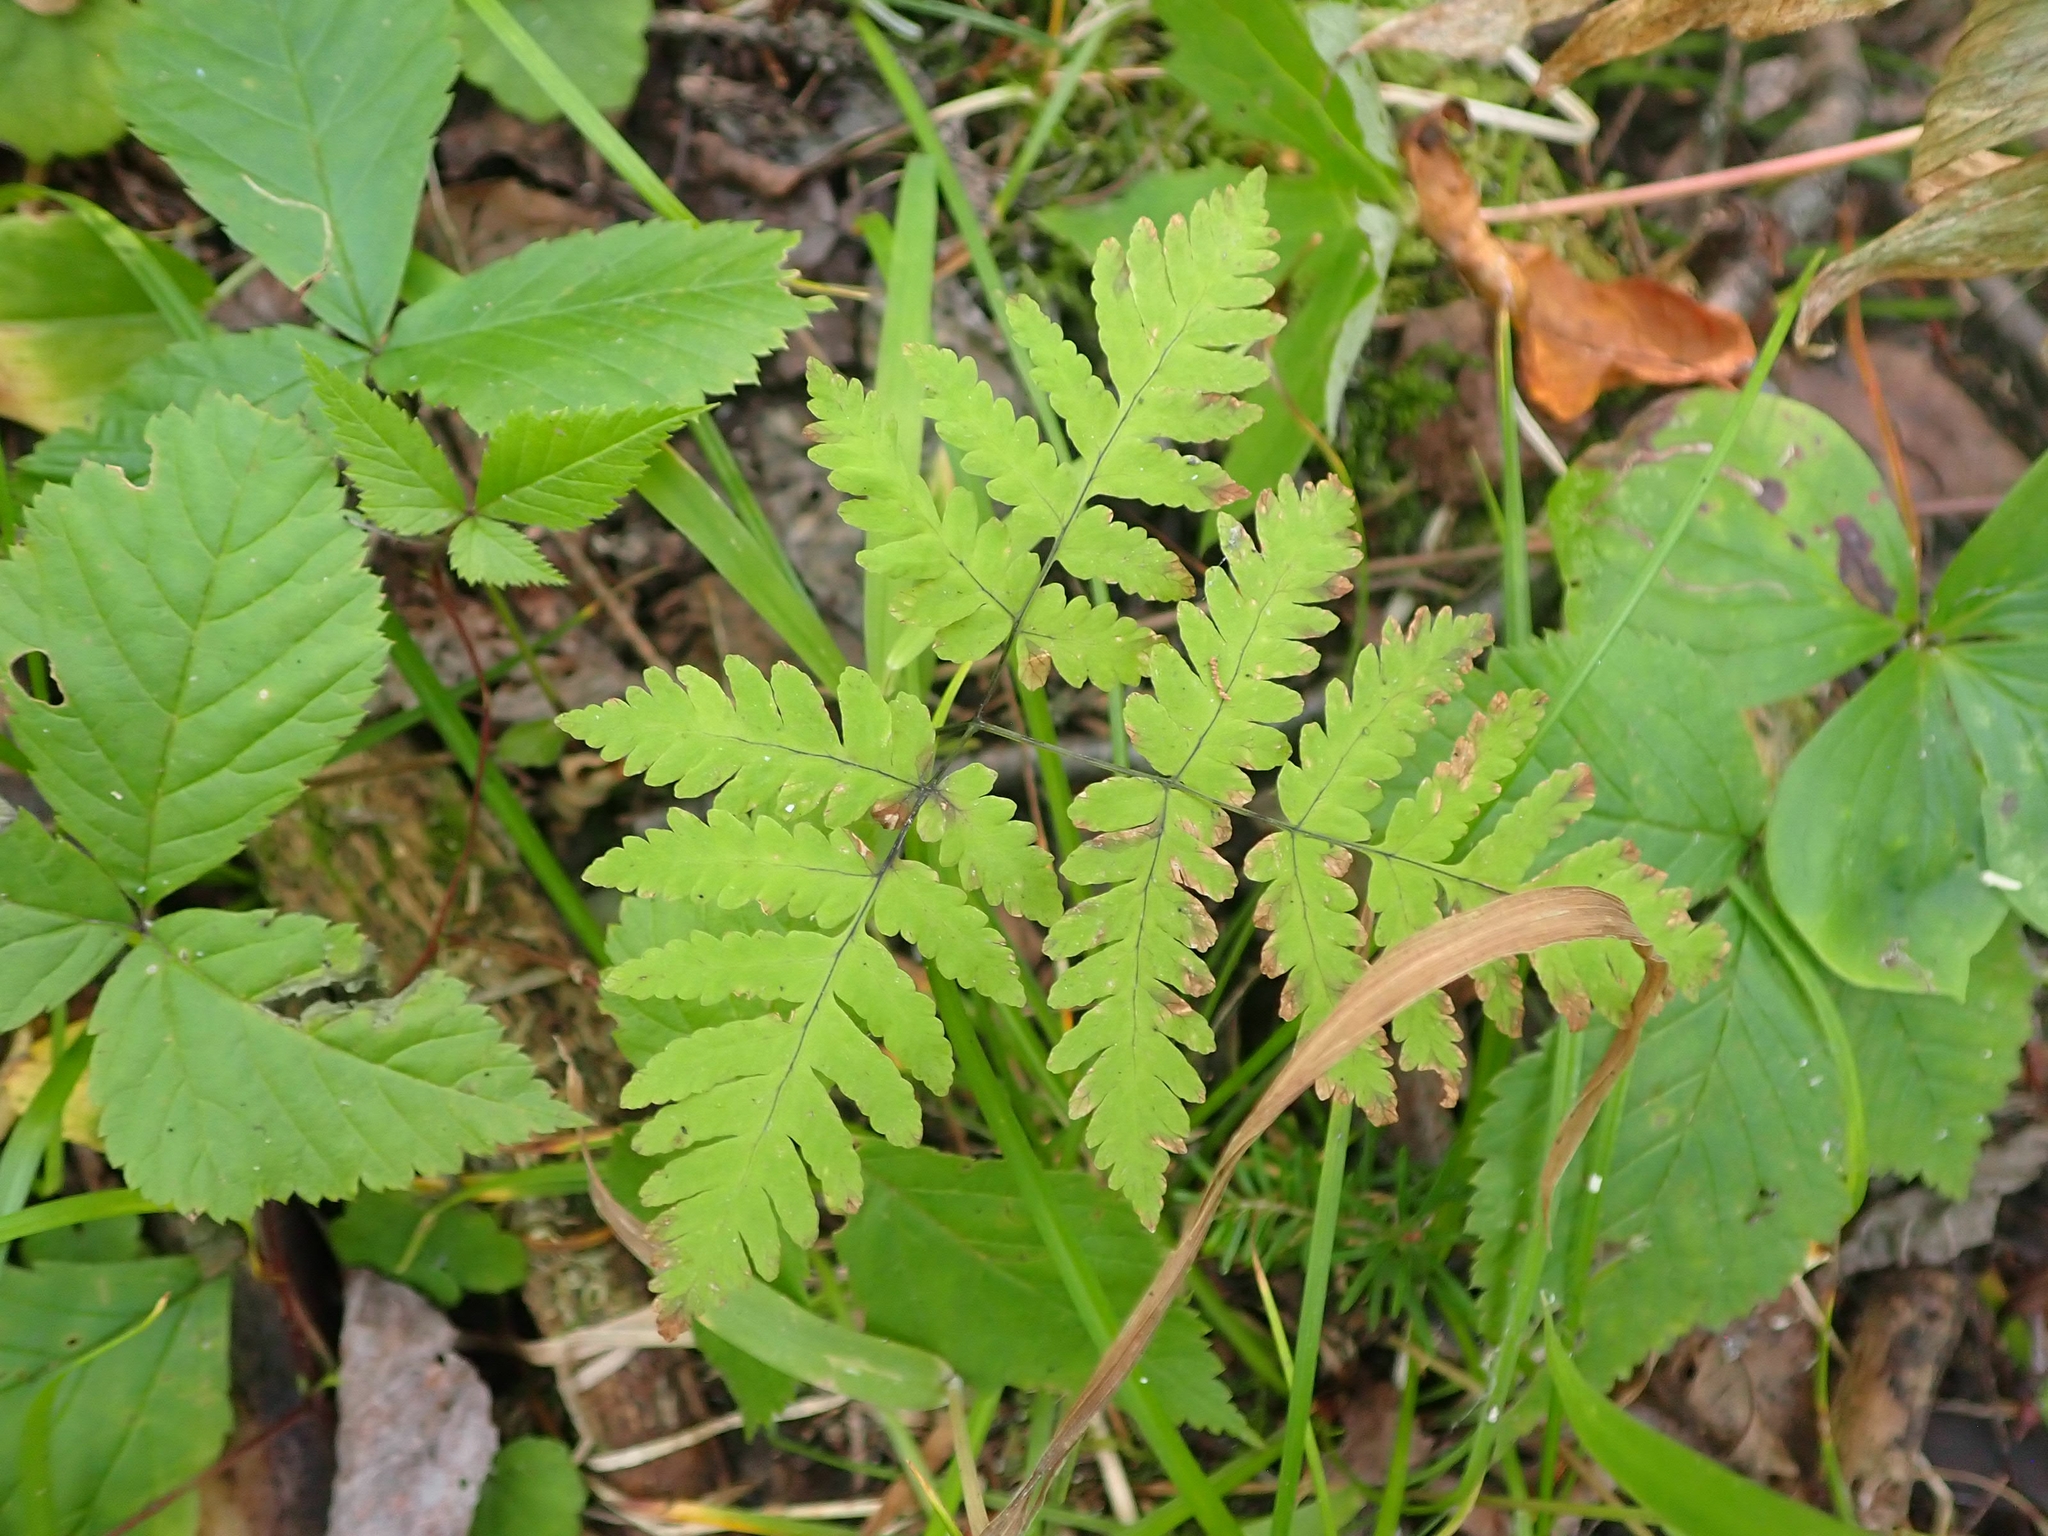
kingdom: Plantae
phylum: Tracheophyta
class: Polypodiopsida
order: Polypodiales
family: Cystopteridaceae
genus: Gymnocarpium
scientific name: Gymnocarpium dryopteris
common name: Oak fern
